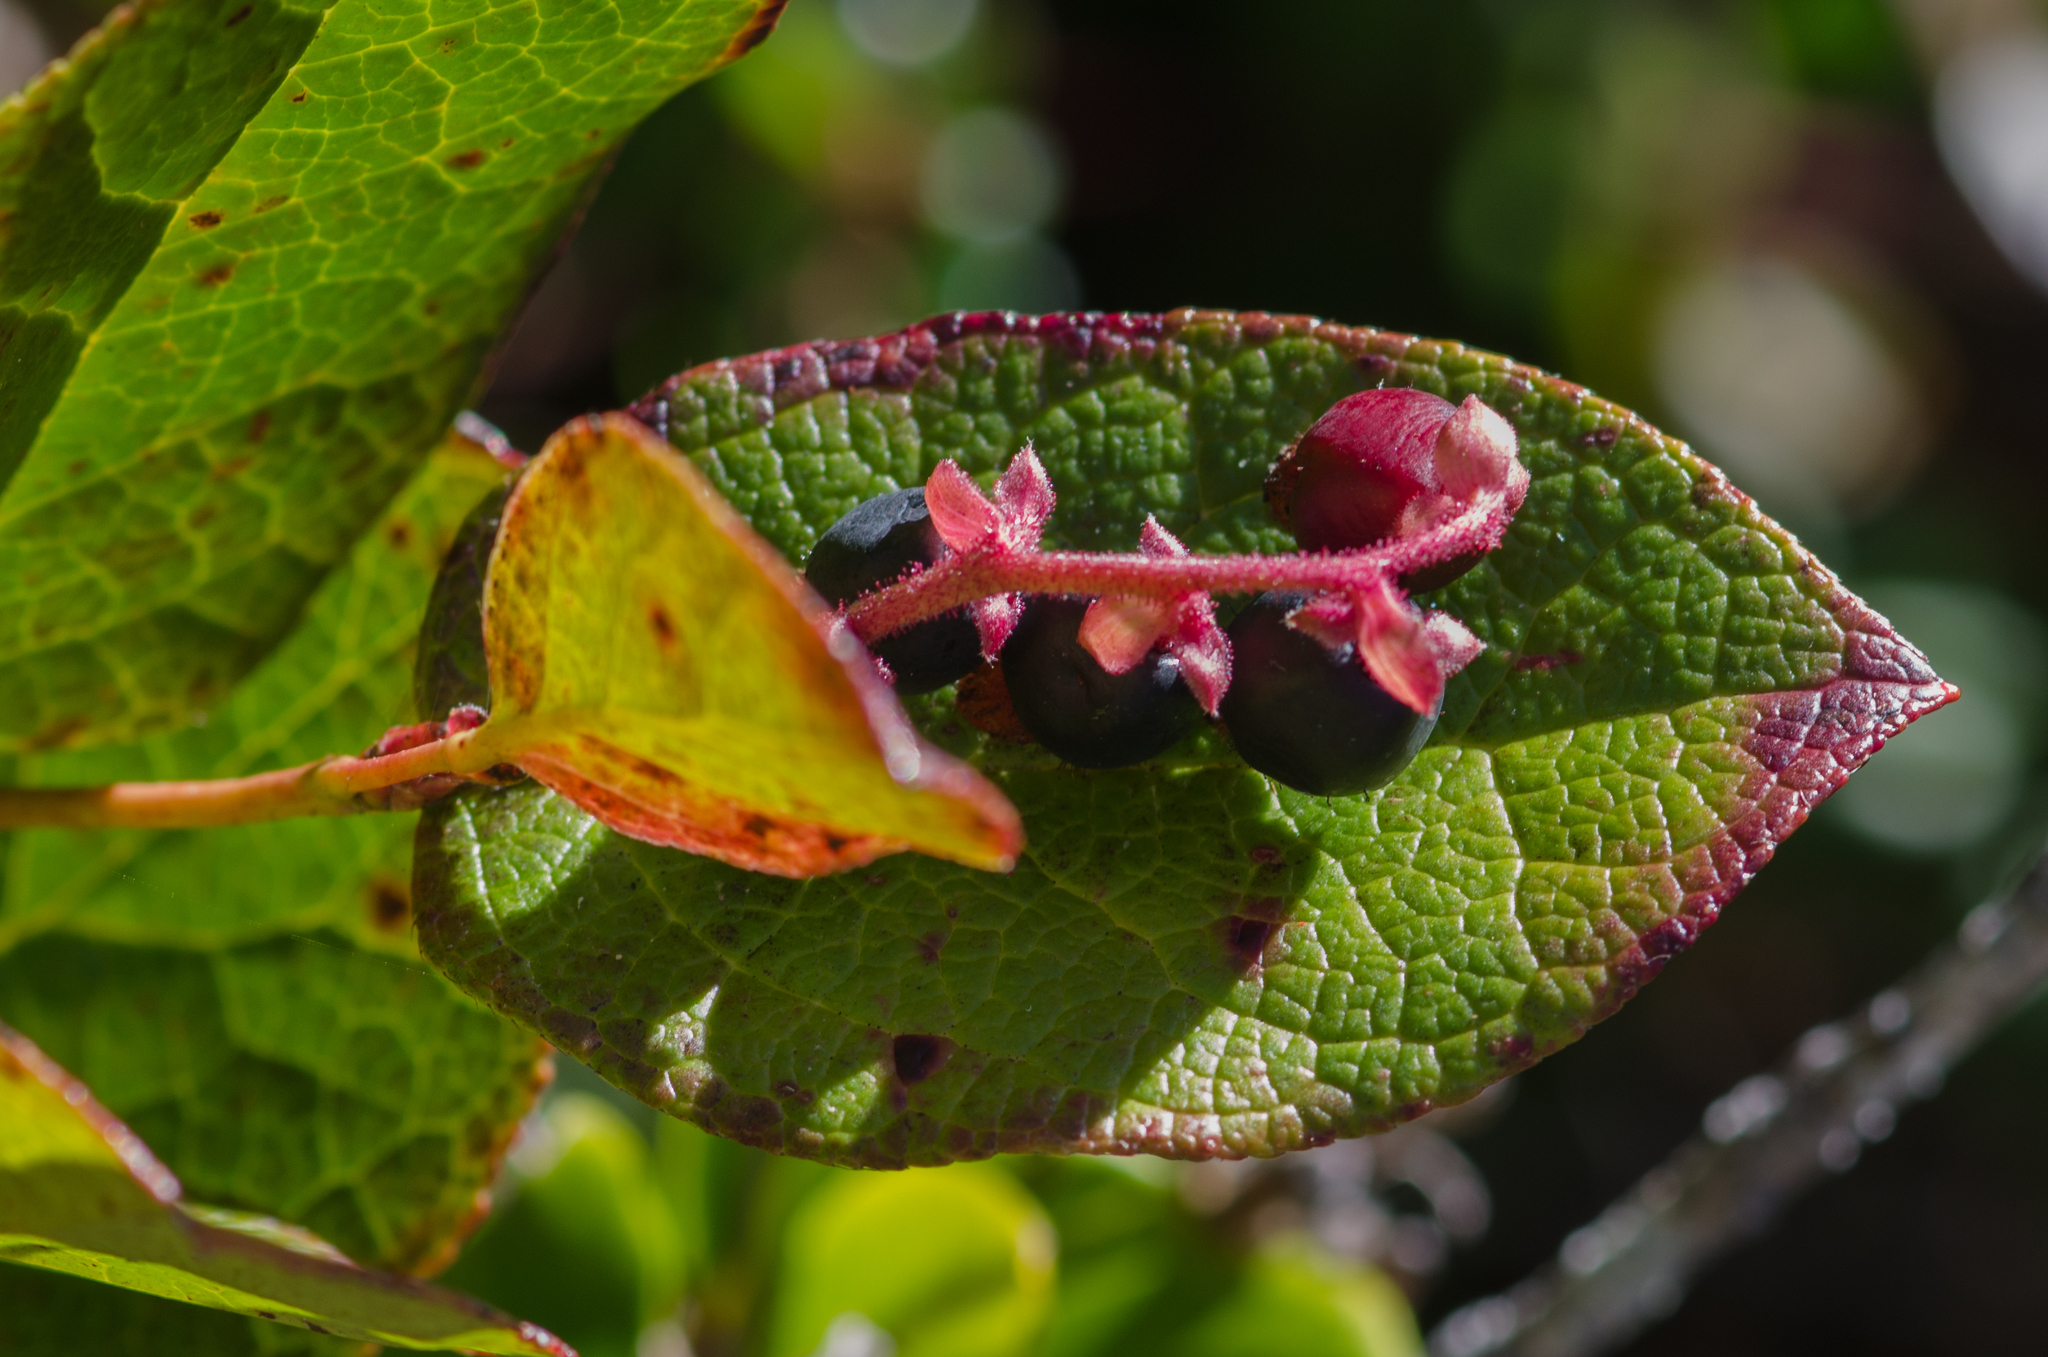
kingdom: Plantae
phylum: Tracheophyta
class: Magnoliopsida
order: Ericales
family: Ericaceae
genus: Gaultheria
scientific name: Gaultheria shallon
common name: Shallon
